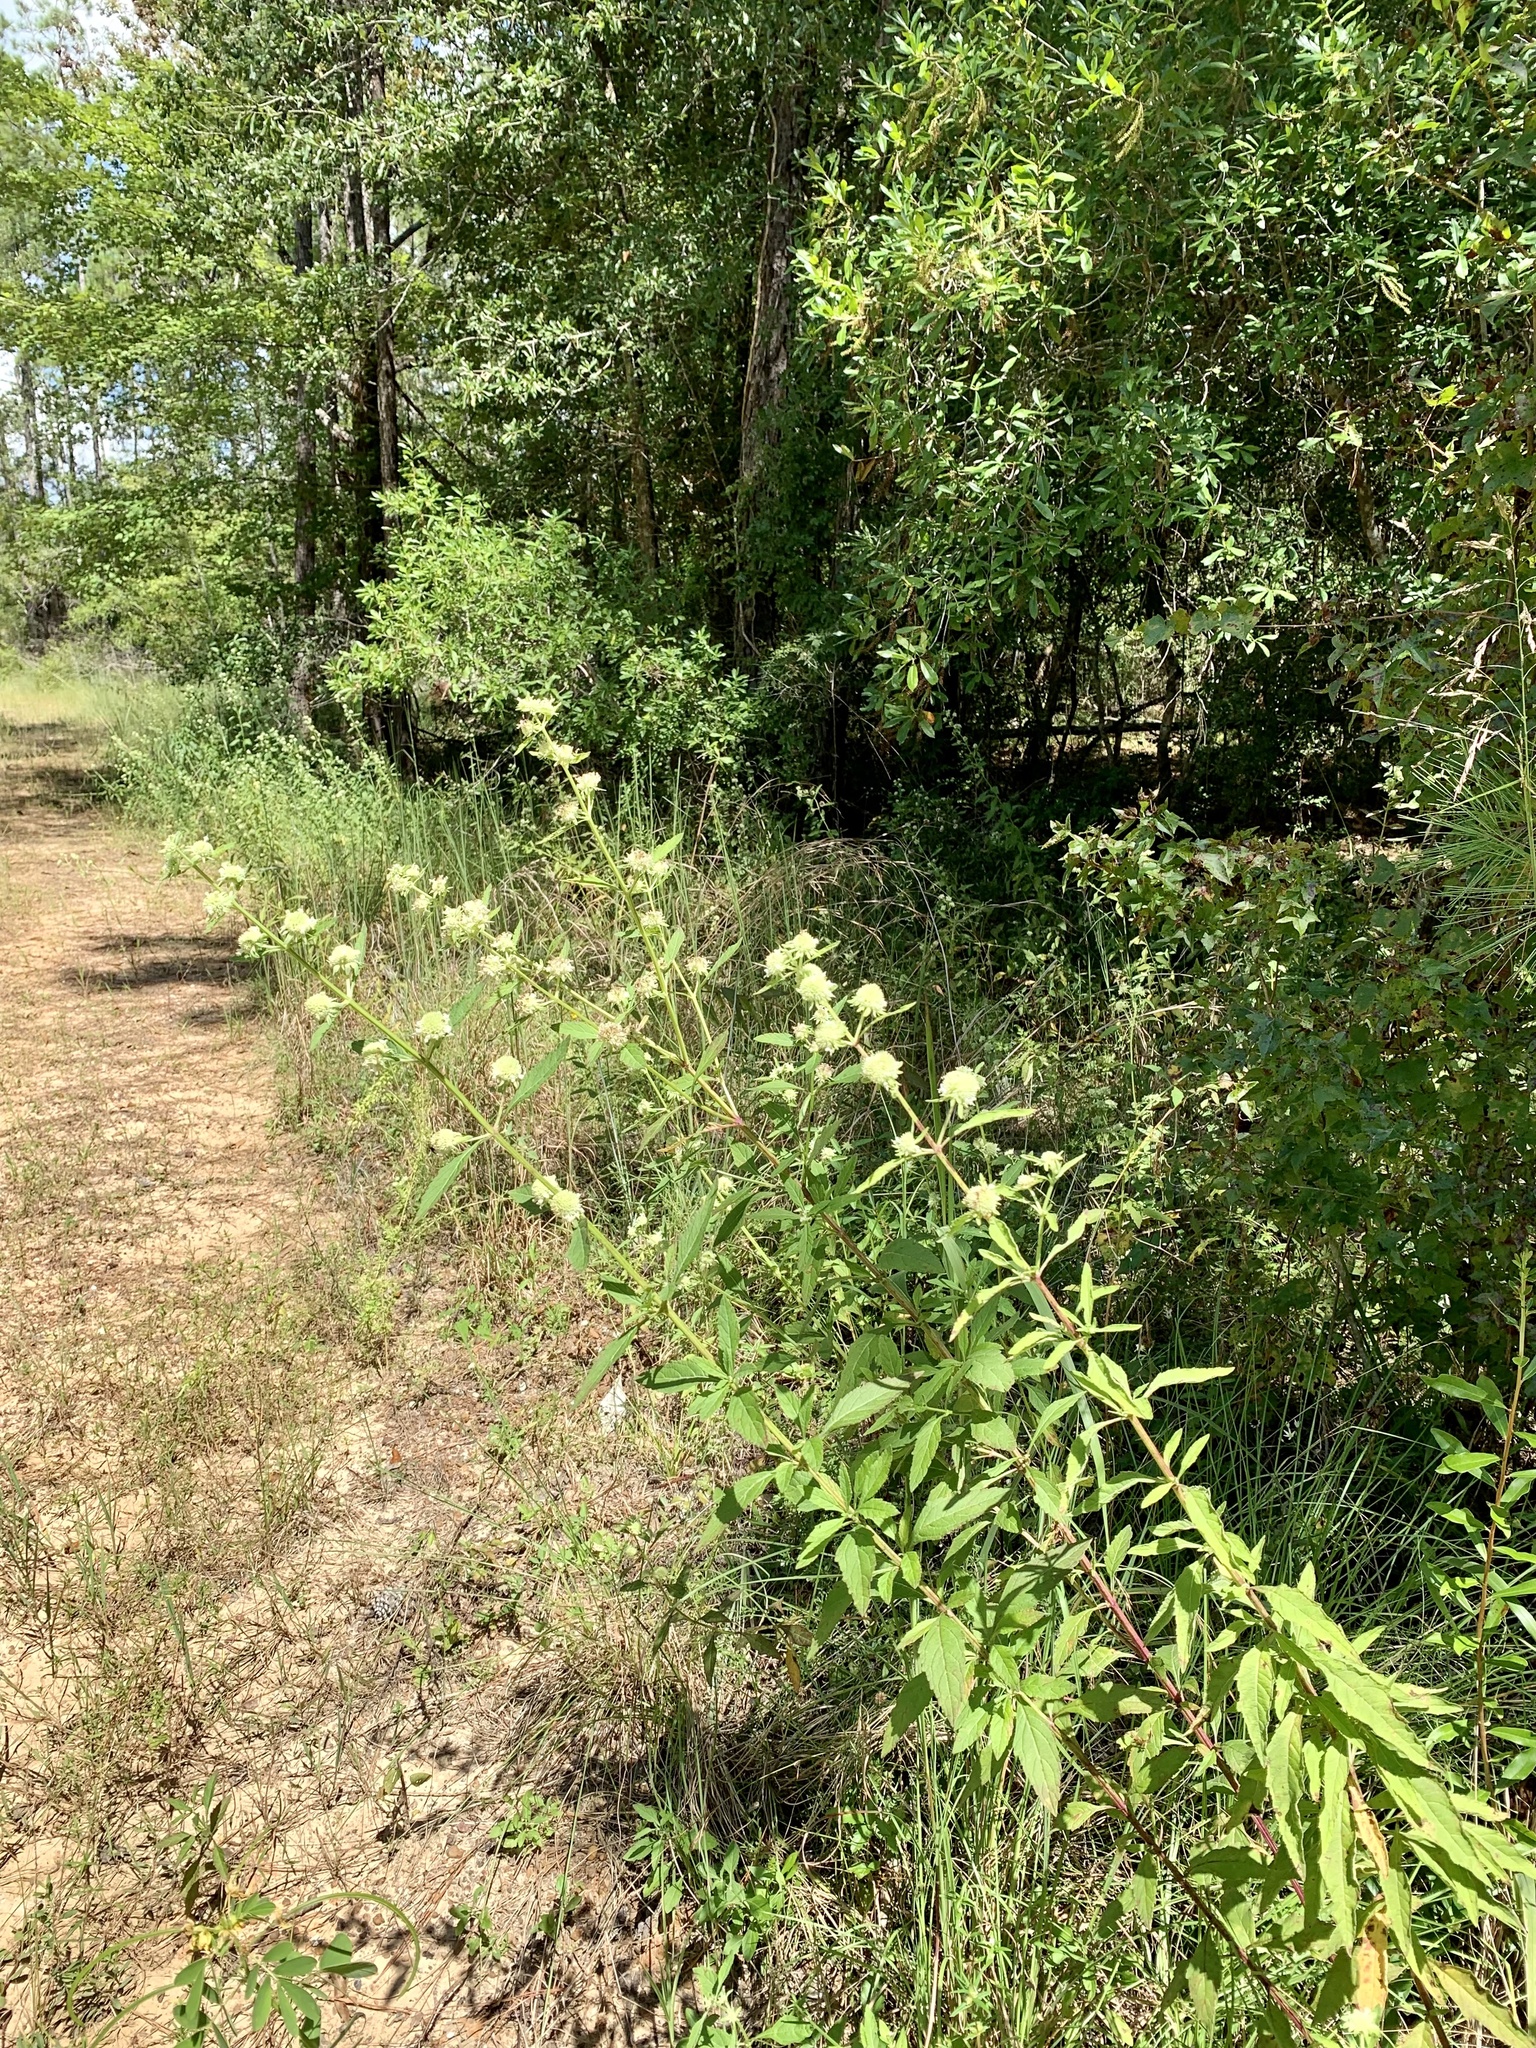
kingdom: Plantae
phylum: Tracheophyta
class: Magnoliopsida
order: Lamiales
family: Lamiaceae
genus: Hyptis
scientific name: Hyptis alata
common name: Cluster bush-mint
